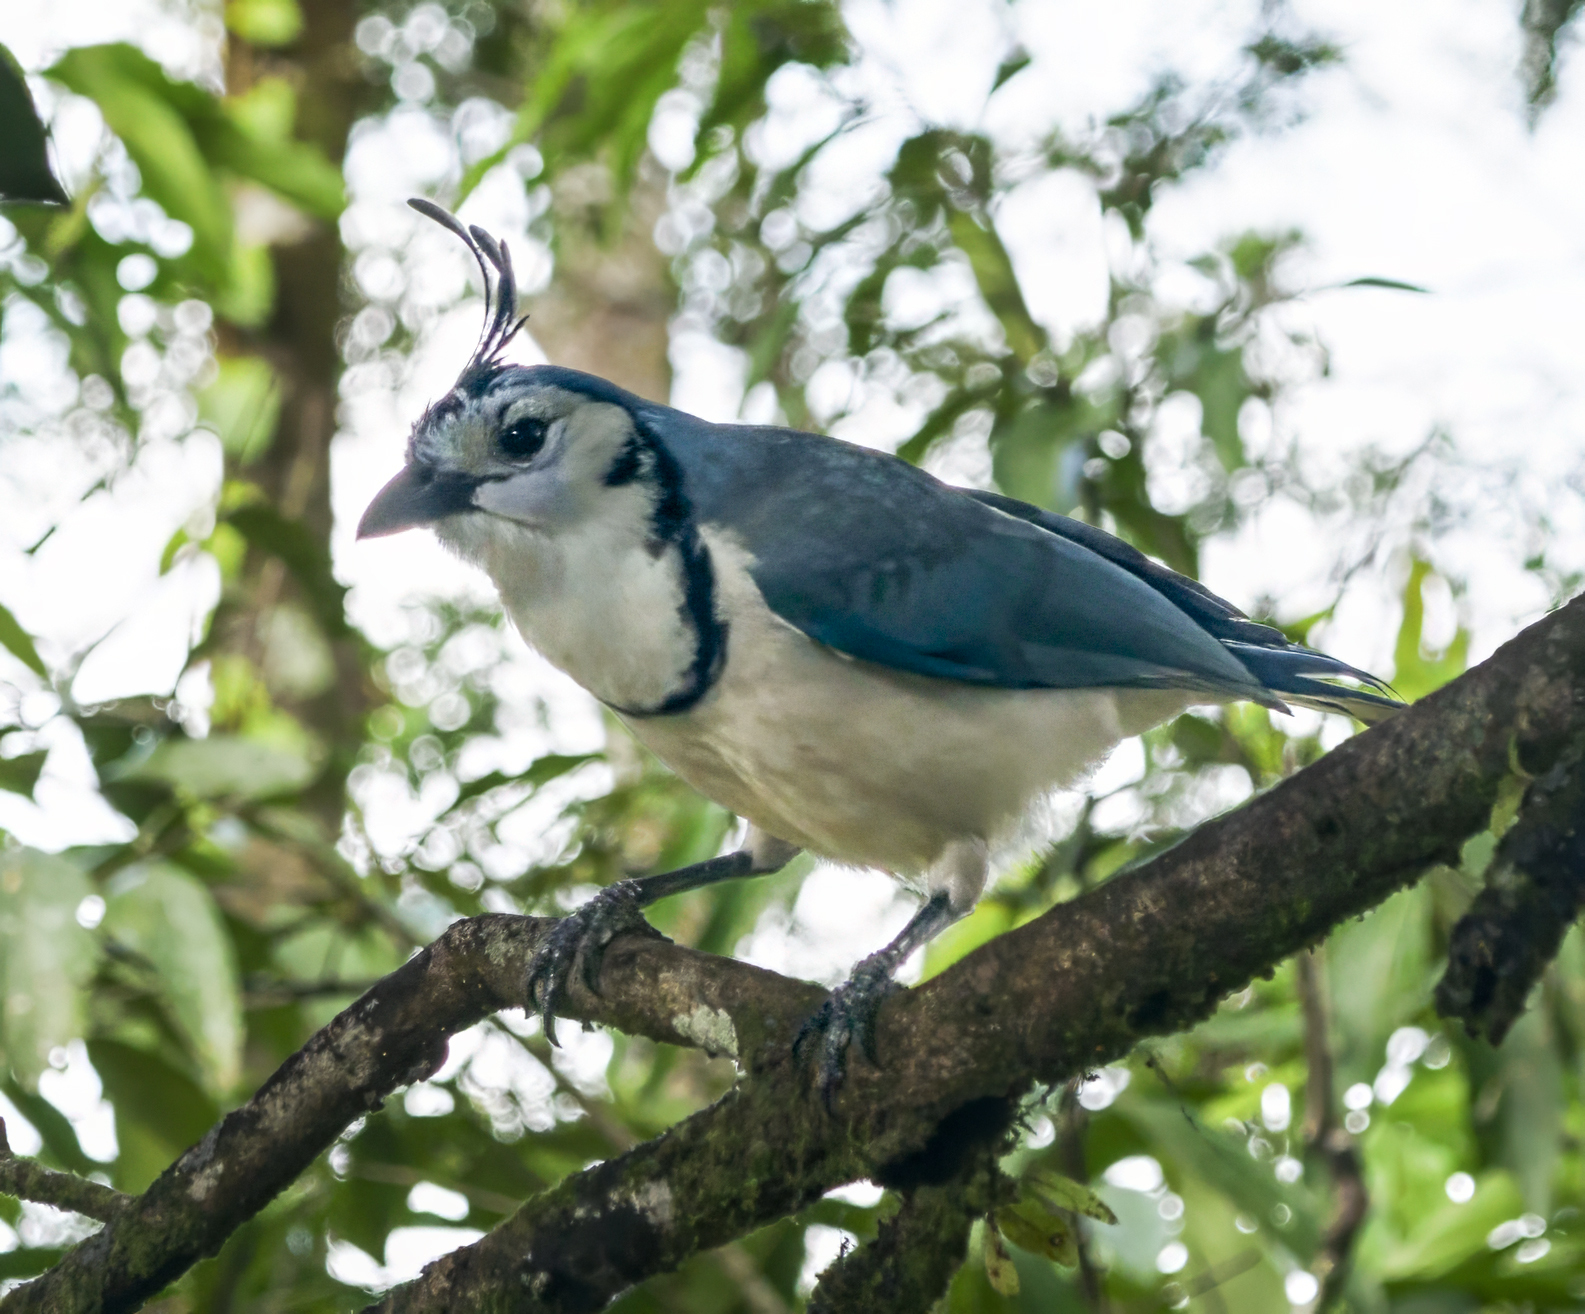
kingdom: Animalia
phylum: Chordata
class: Aves
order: Passeriformes
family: Corvidae
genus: Calocitta
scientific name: Calocitta formosa
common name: White-throated magpie-jay
